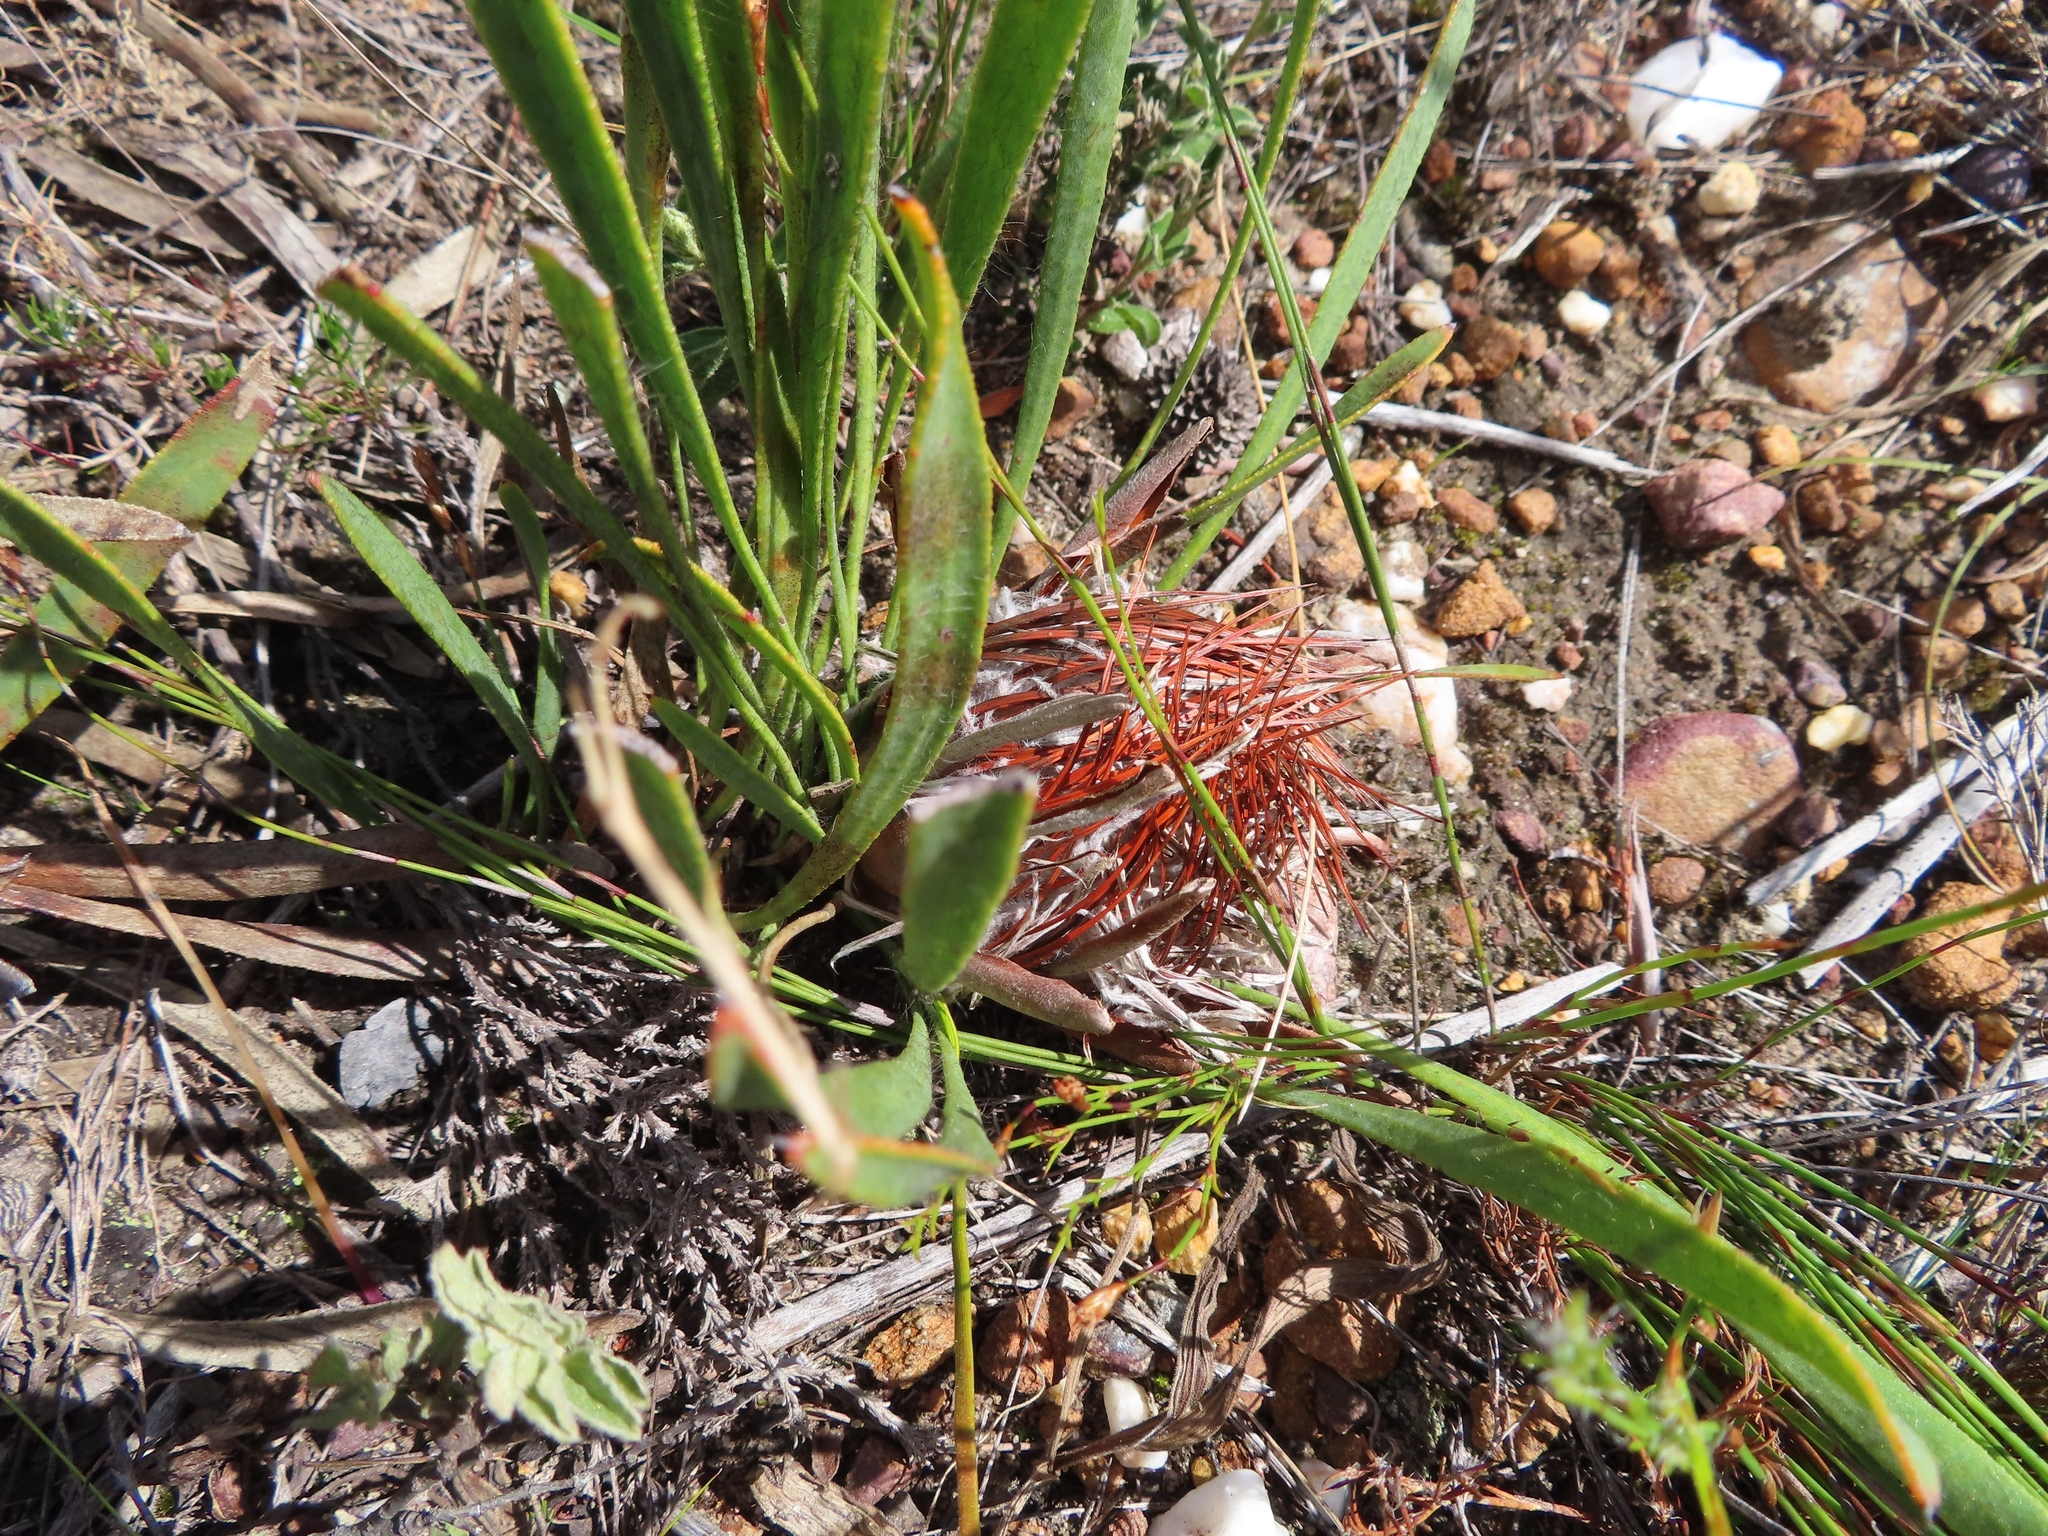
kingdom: Plantae
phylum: Tracheophyta
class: Magnoliopsida
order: Proteales
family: Proteaceae
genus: Protea
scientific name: Protea aspera
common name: Rough-leaf sugarbush
